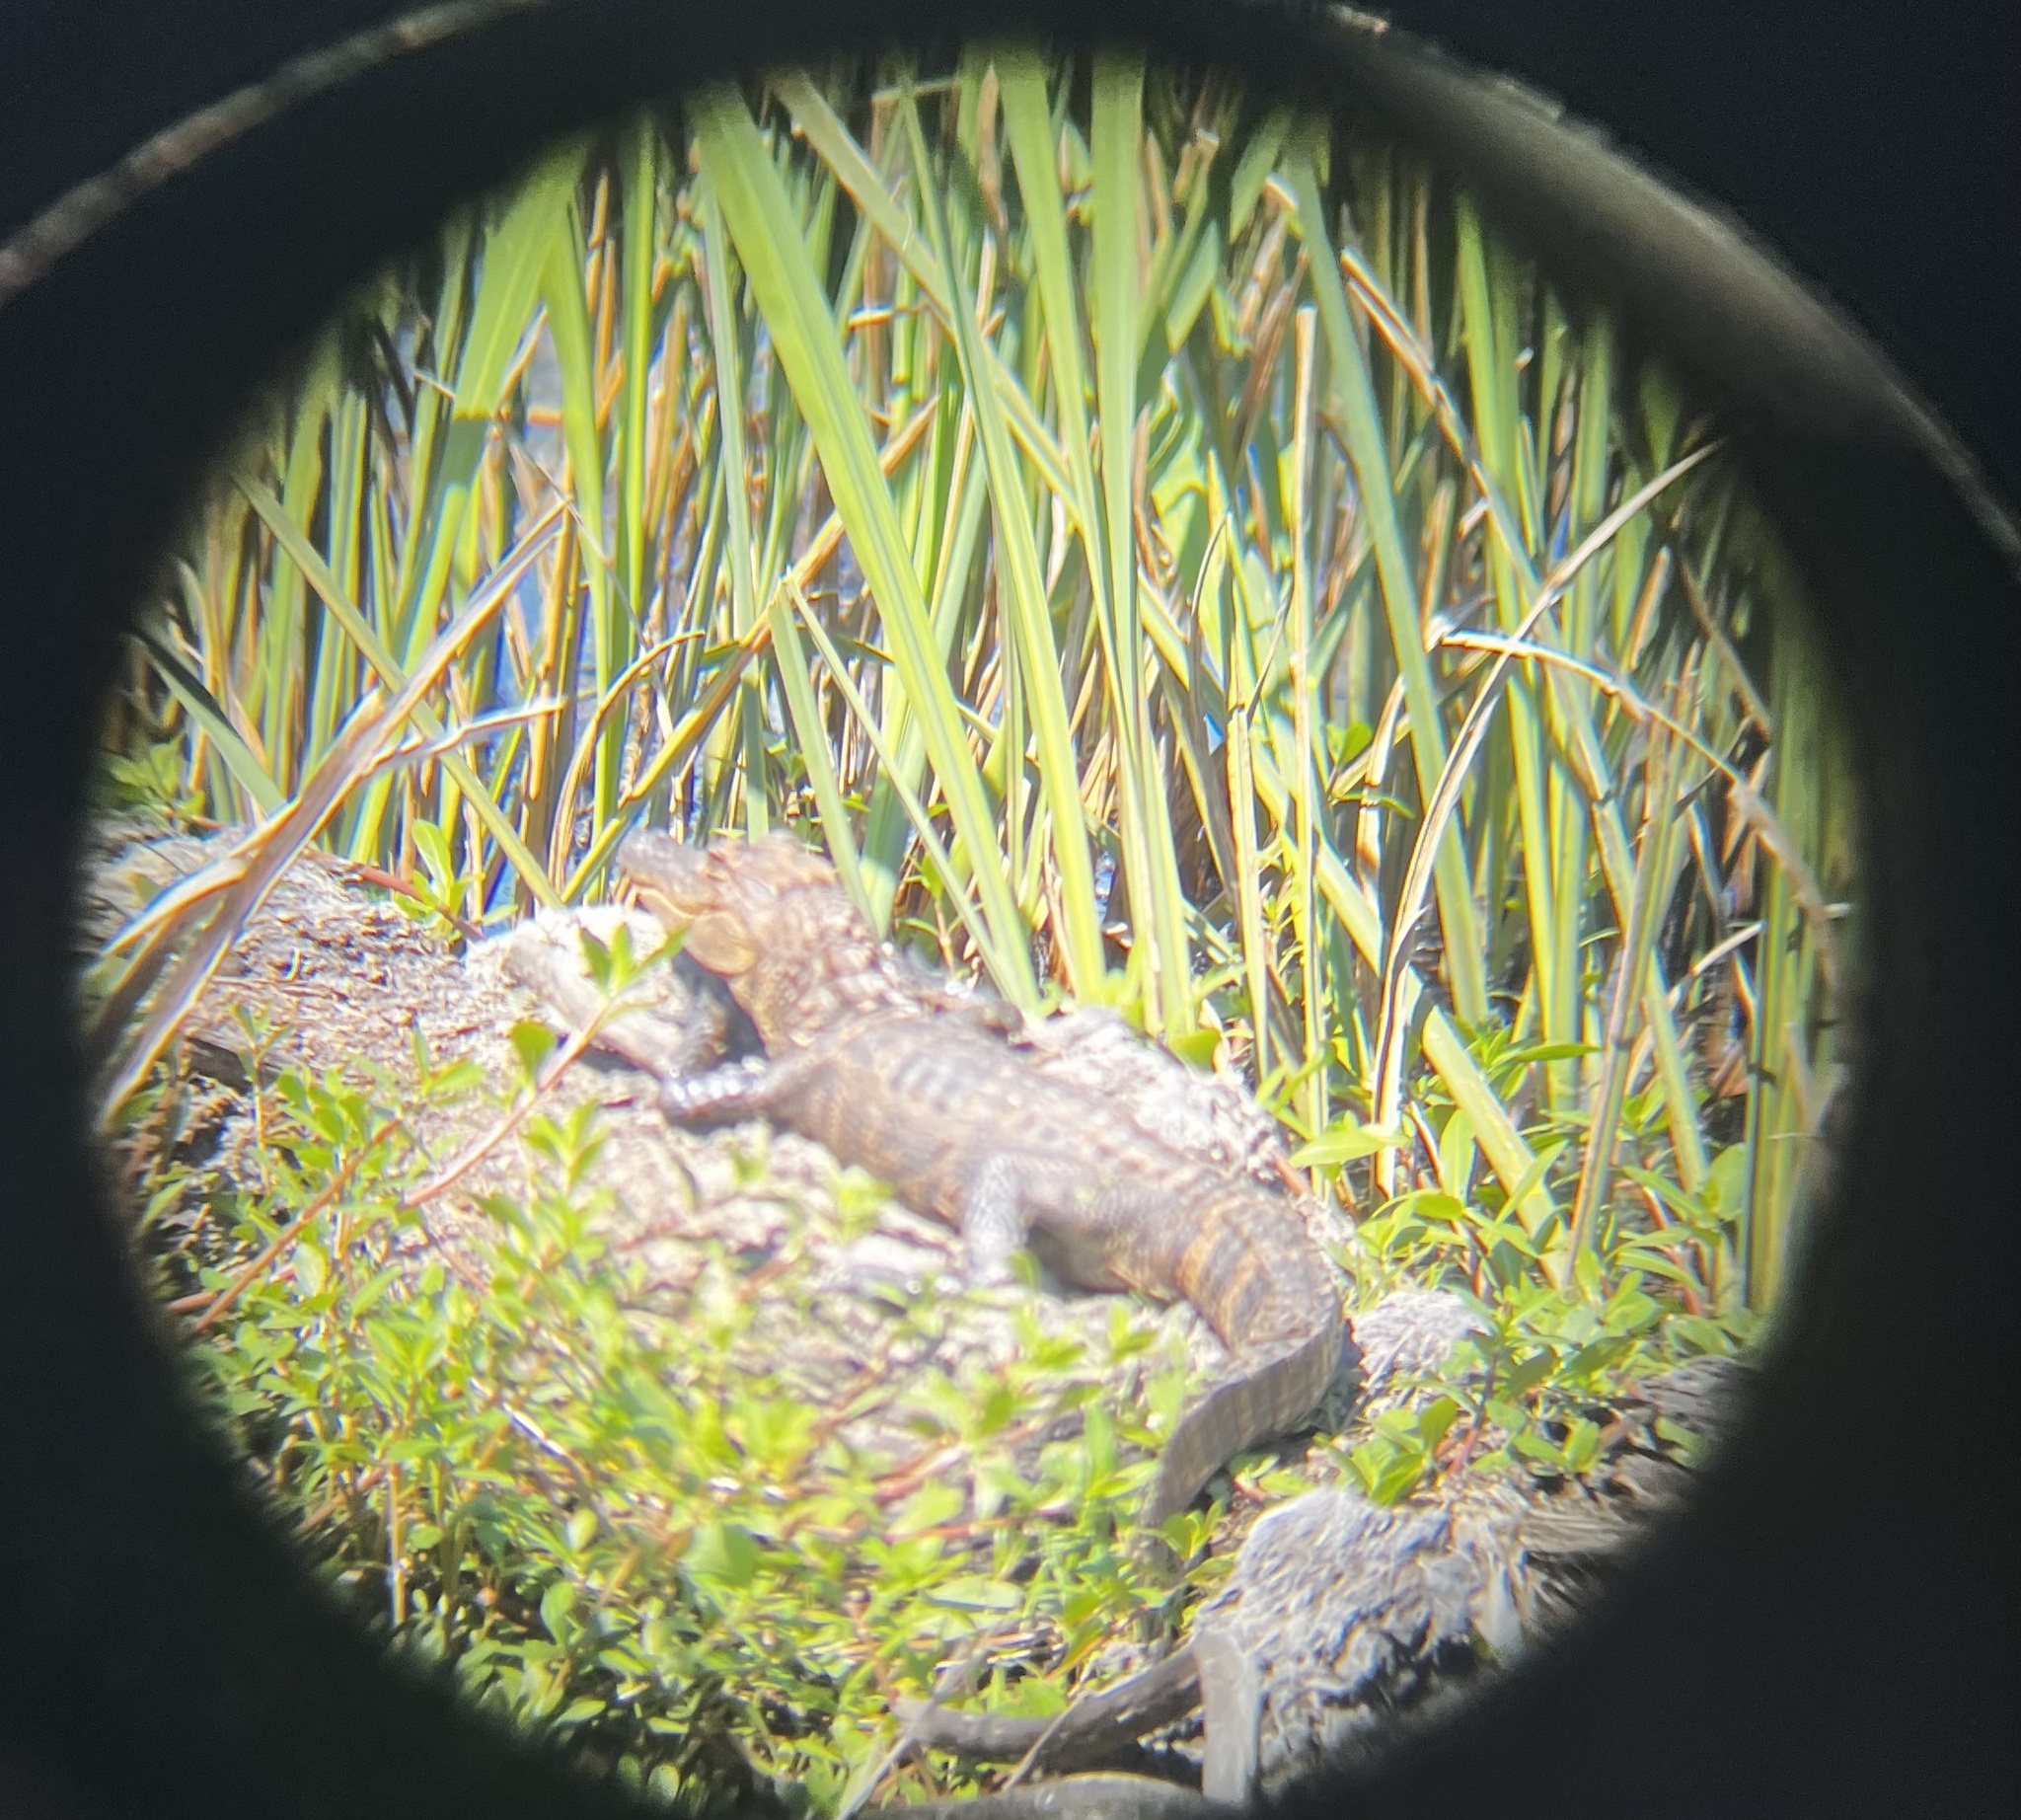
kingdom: Animalia
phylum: Chordata
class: Crocodylia
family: Alligatoridae
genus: Alligator
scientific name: Alligator mississippiensis
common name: American alligator
